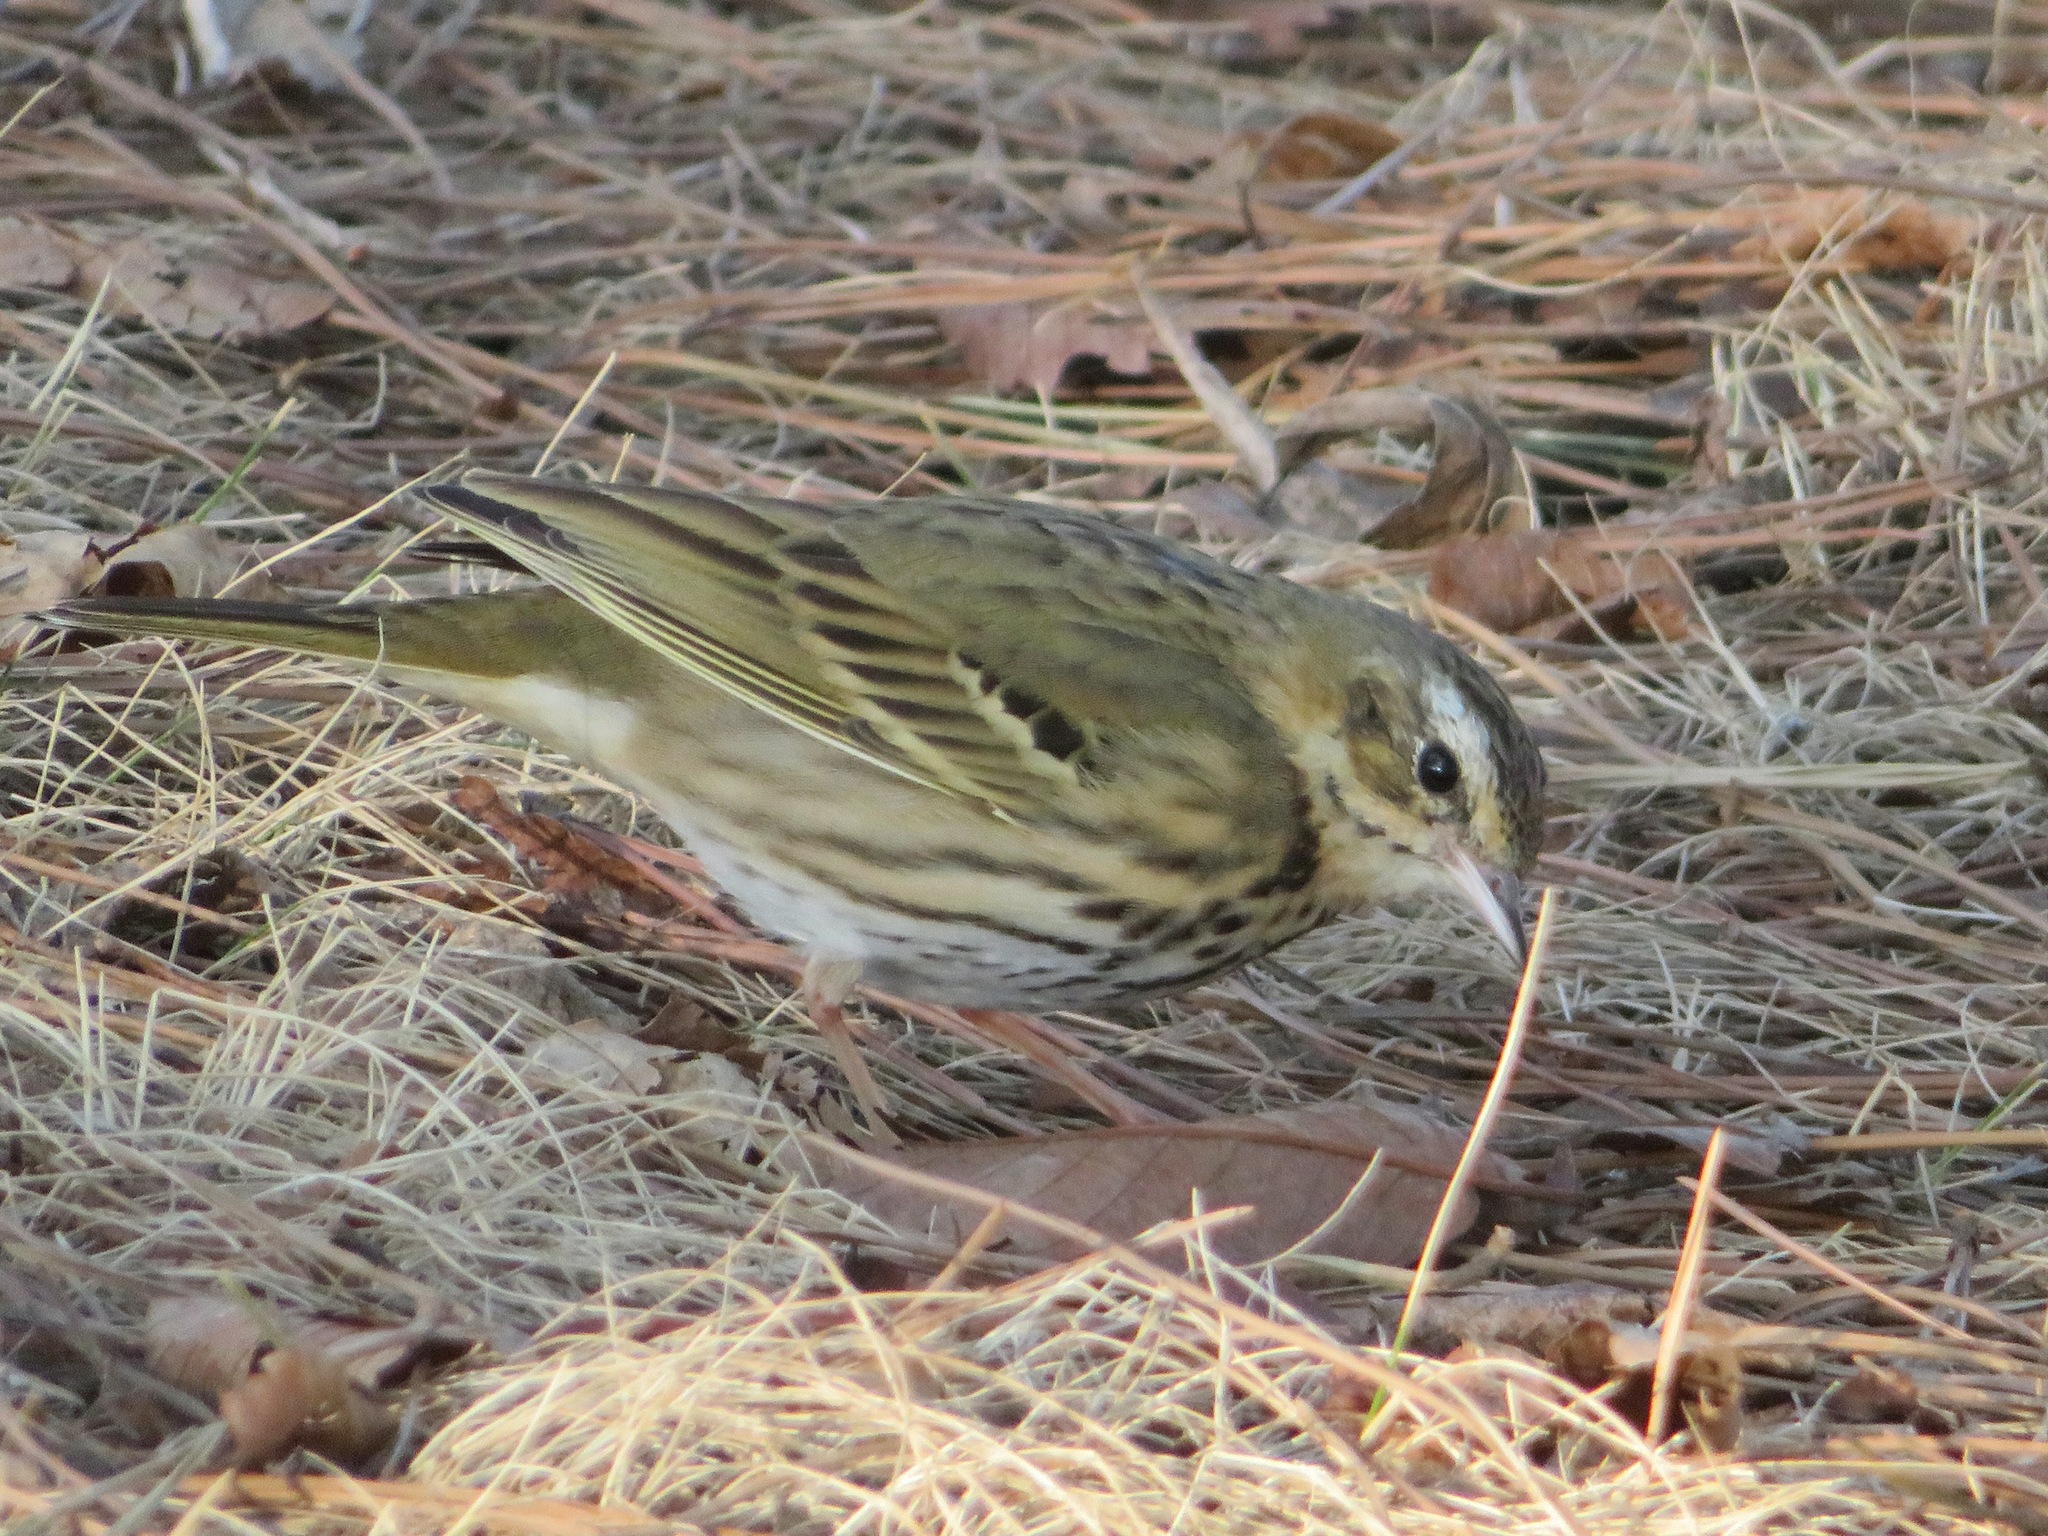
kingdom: Animalia
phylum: Chordata
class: Aves
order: Passeriformes
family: Motacillidae
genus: Anthus
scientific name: Anthus hodgsoni
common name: Olive-backed pipit
